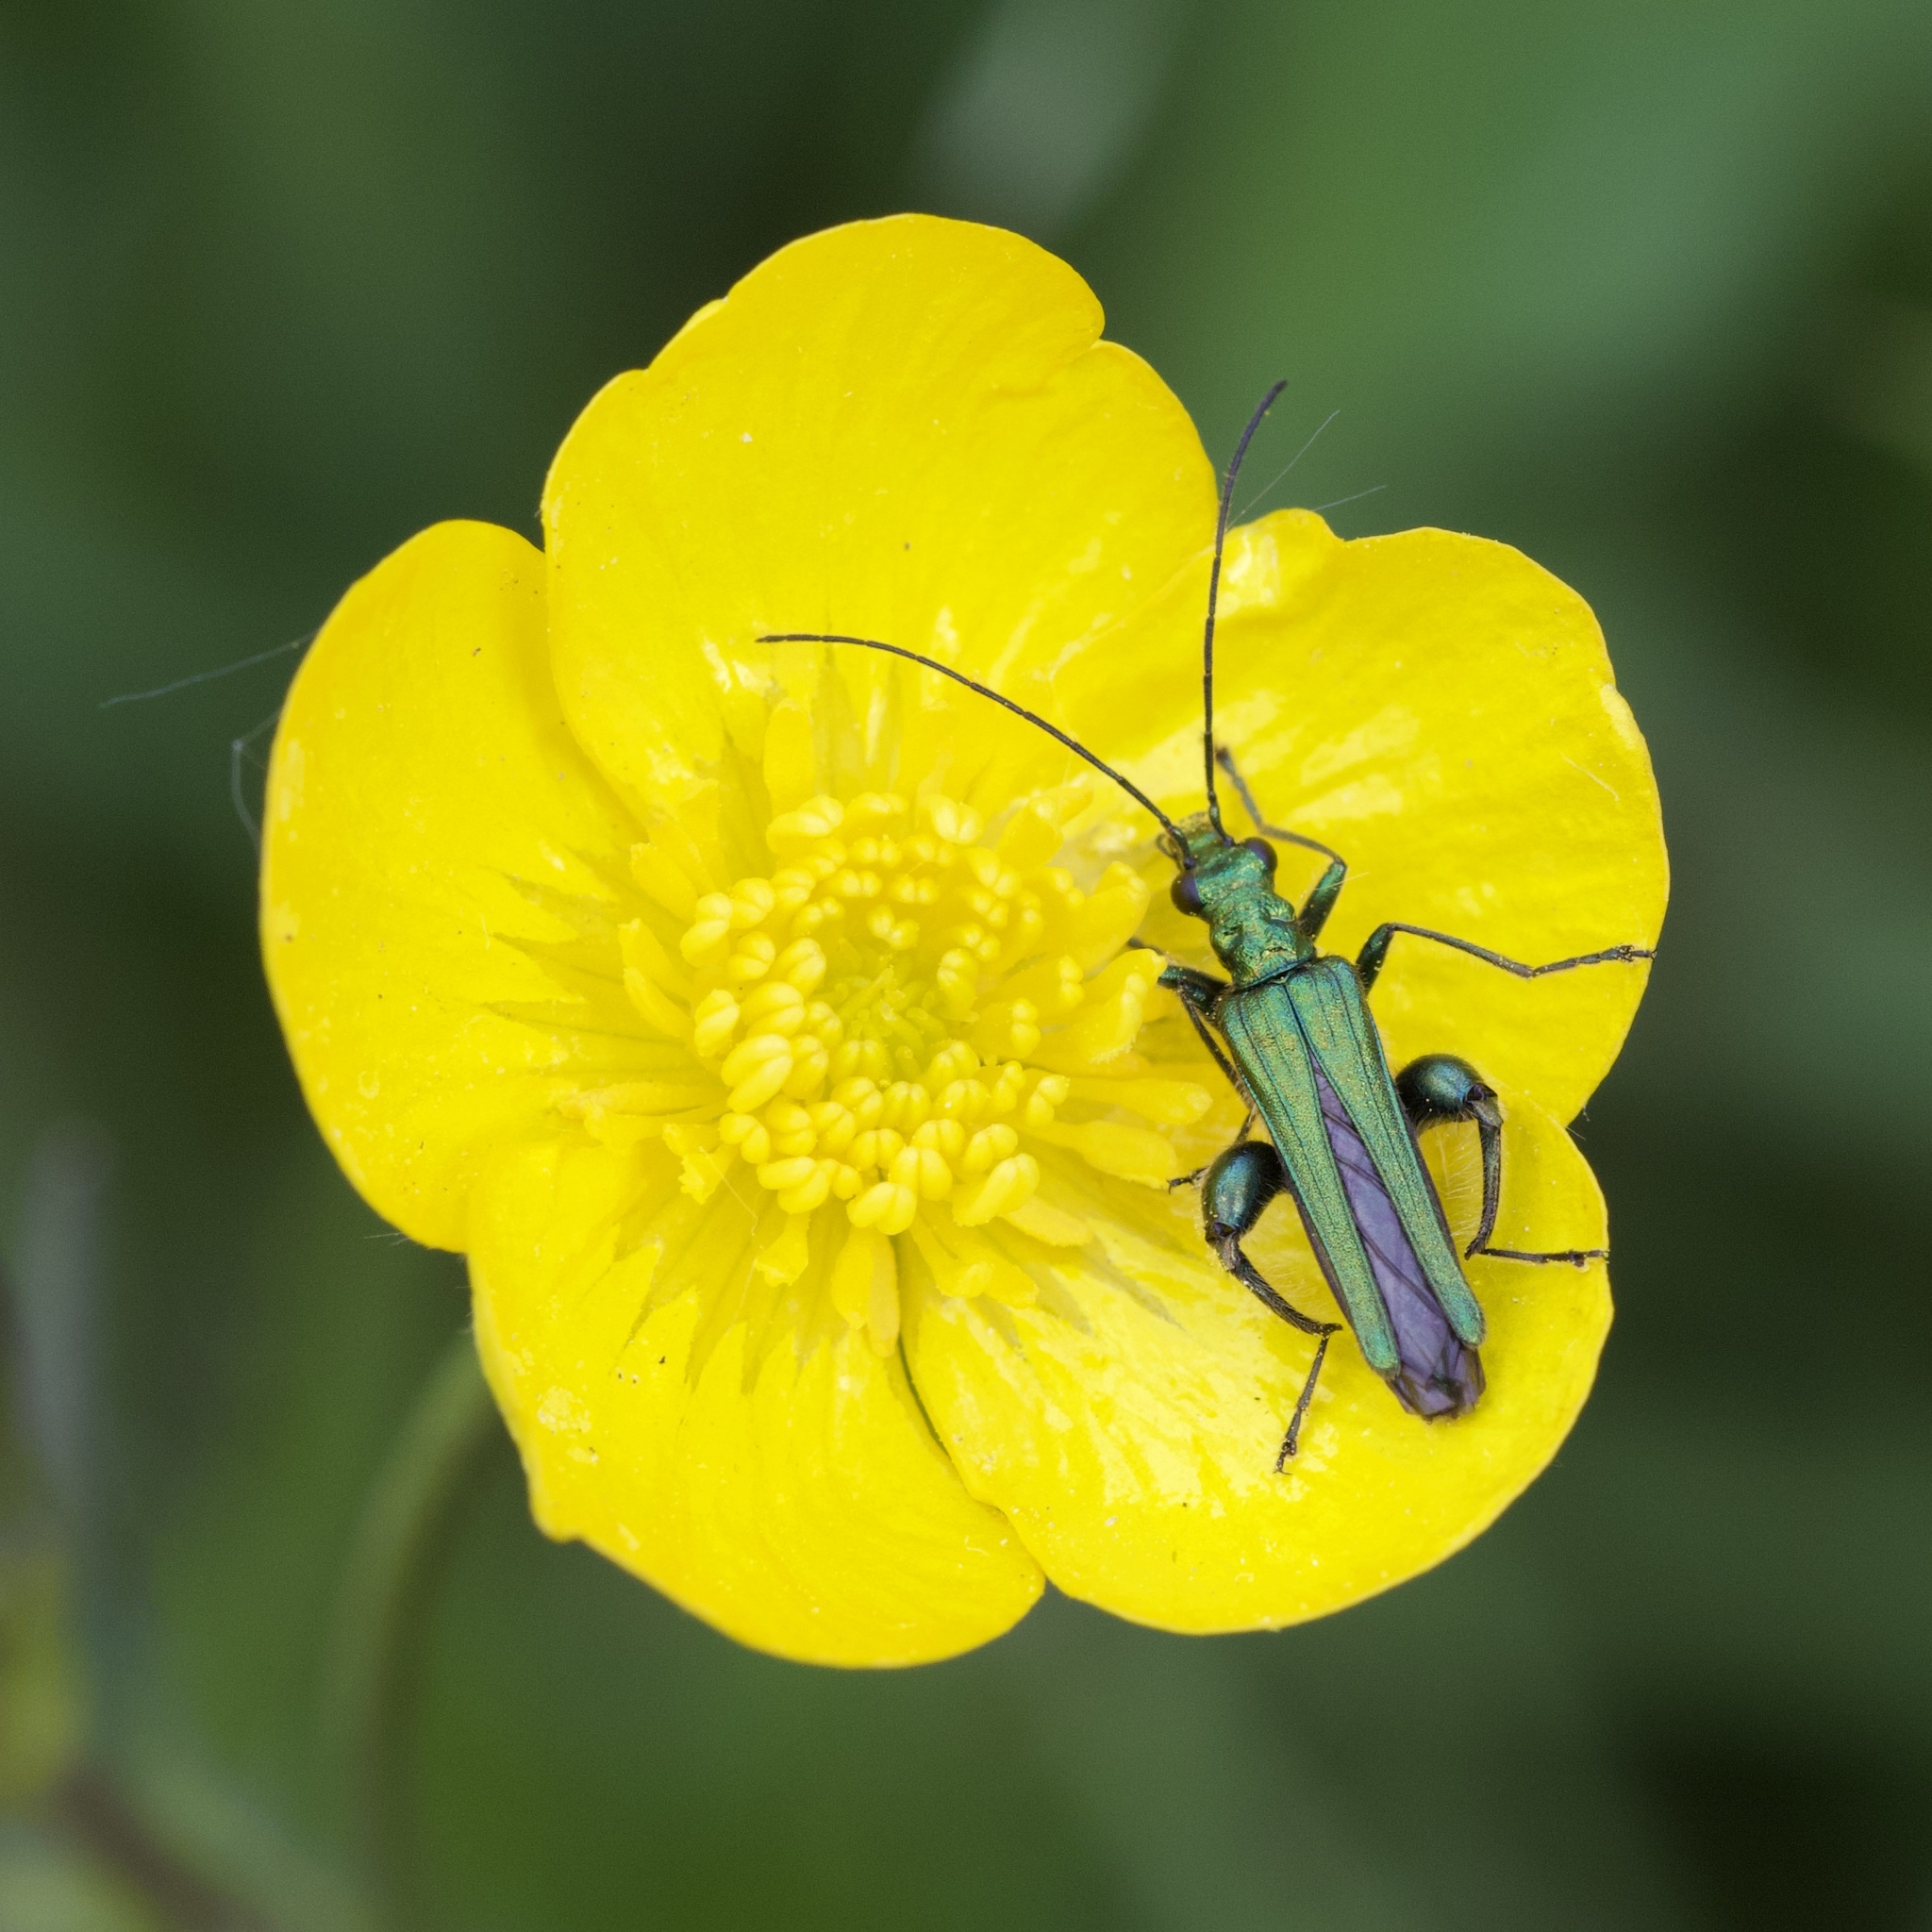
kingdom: Animalia
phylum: Arthropoda
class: Insecta
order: Coleoptera
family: Oedemeridae
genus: Oedemera
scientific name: Oedemera nobilis
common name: Swollen-thighed beetle
